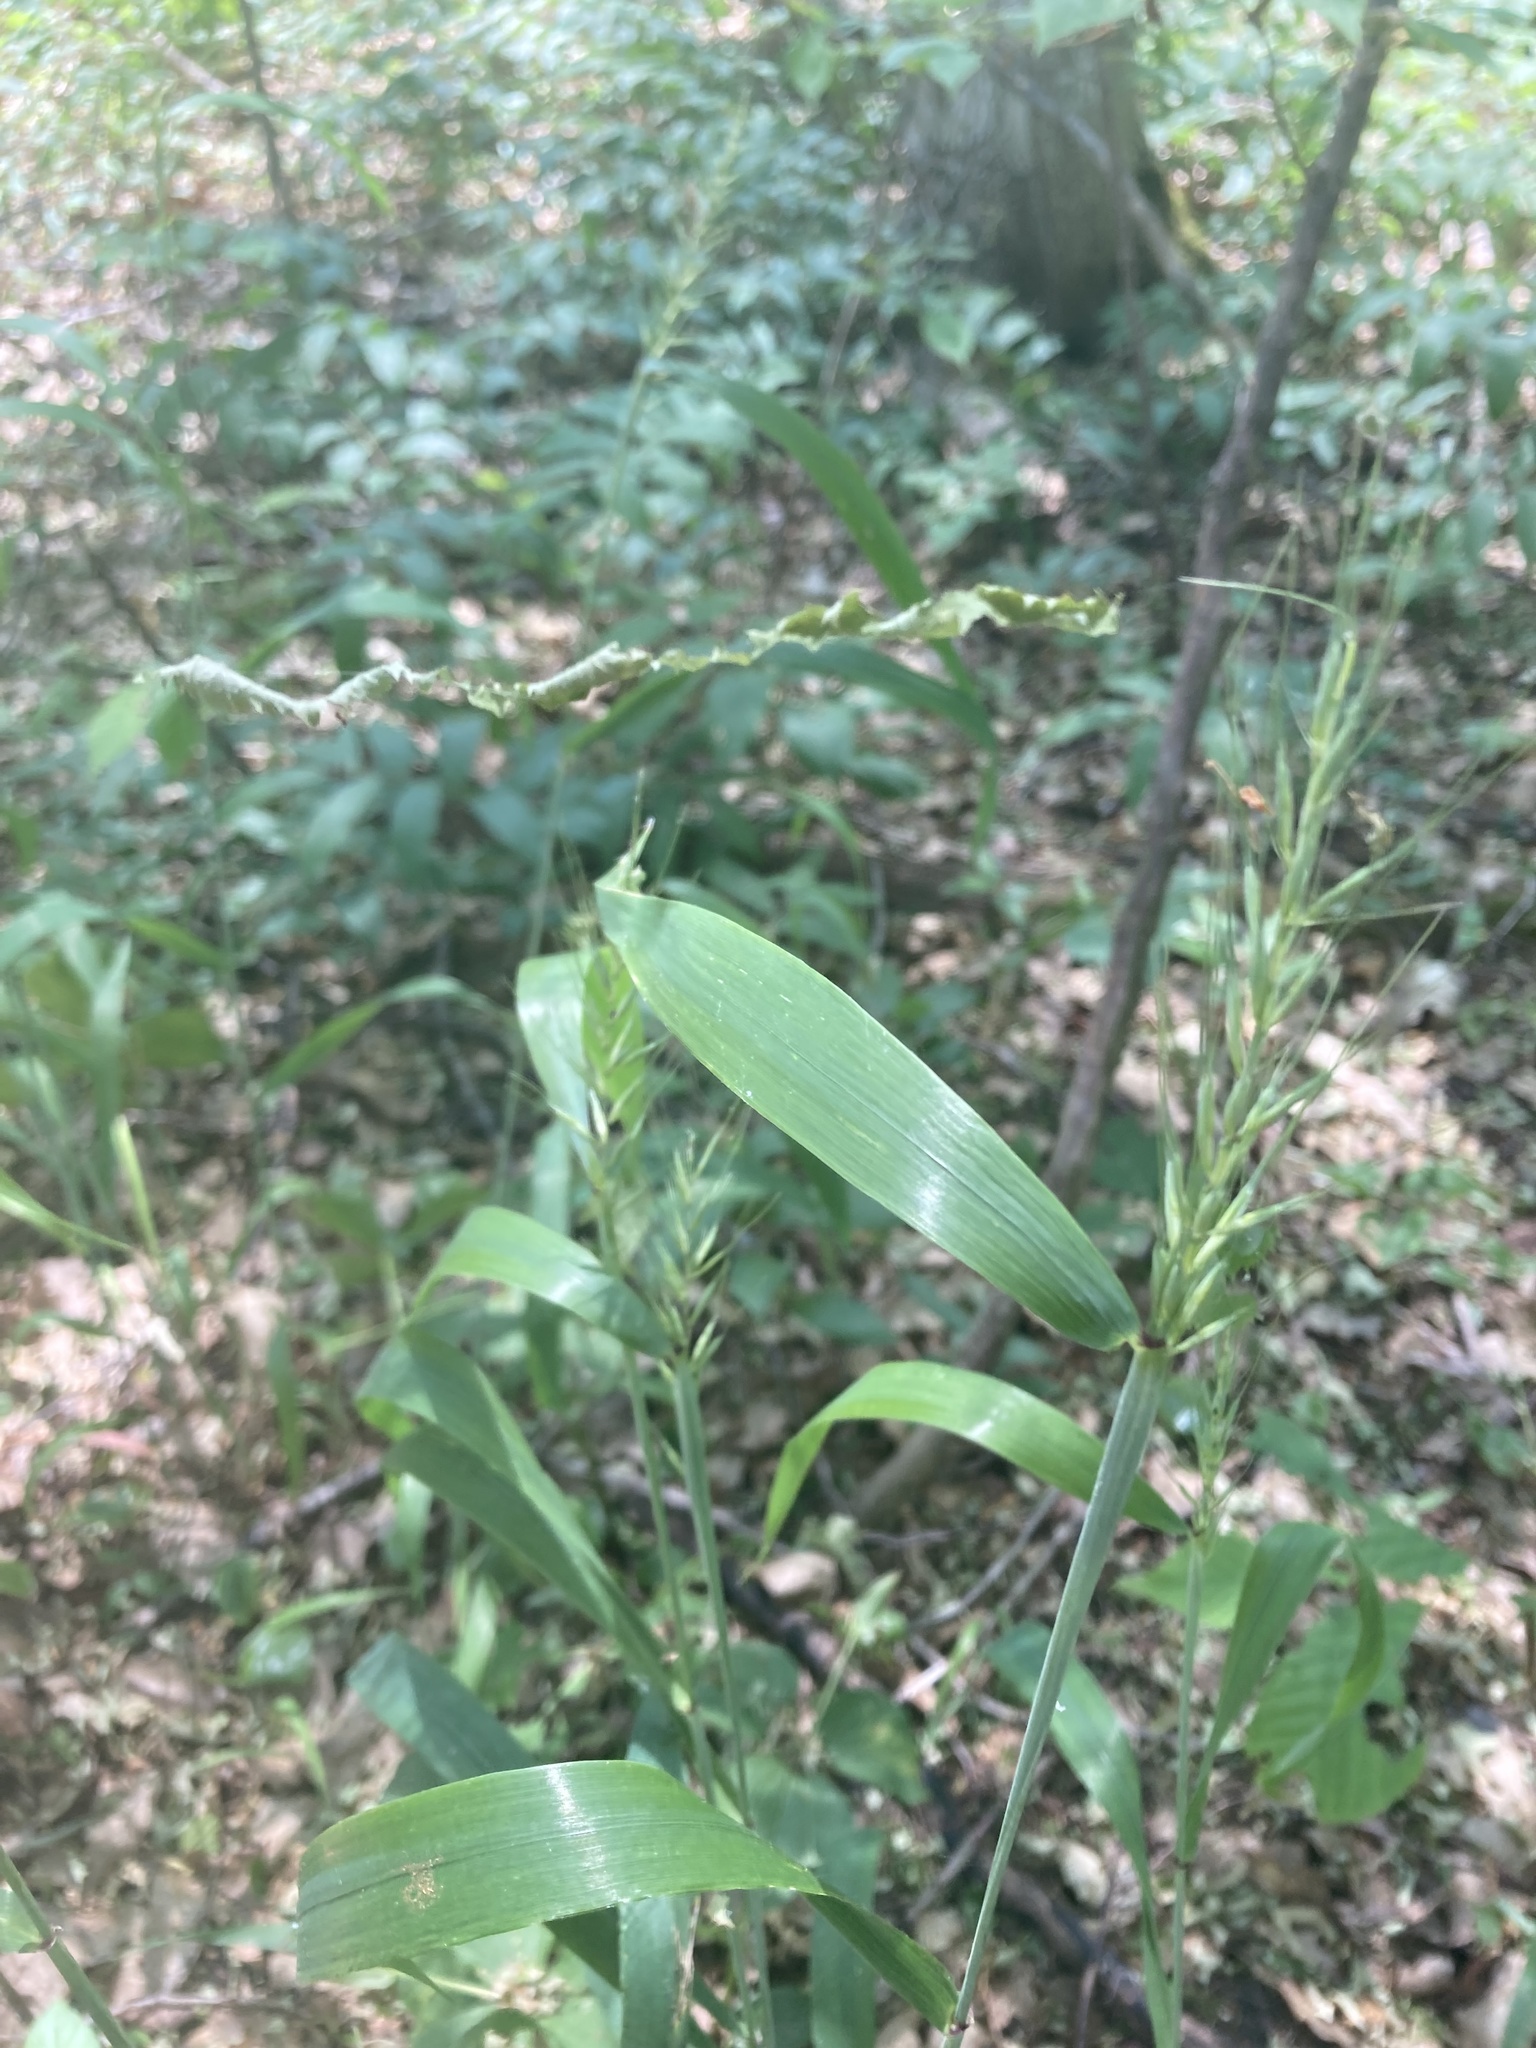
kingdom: Plantae
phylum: Tracheophyta
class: Liliopsida
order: Poales
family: Poaceae
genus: Elymus
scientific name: Elymus hystrix
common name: Bottlebrush grass
